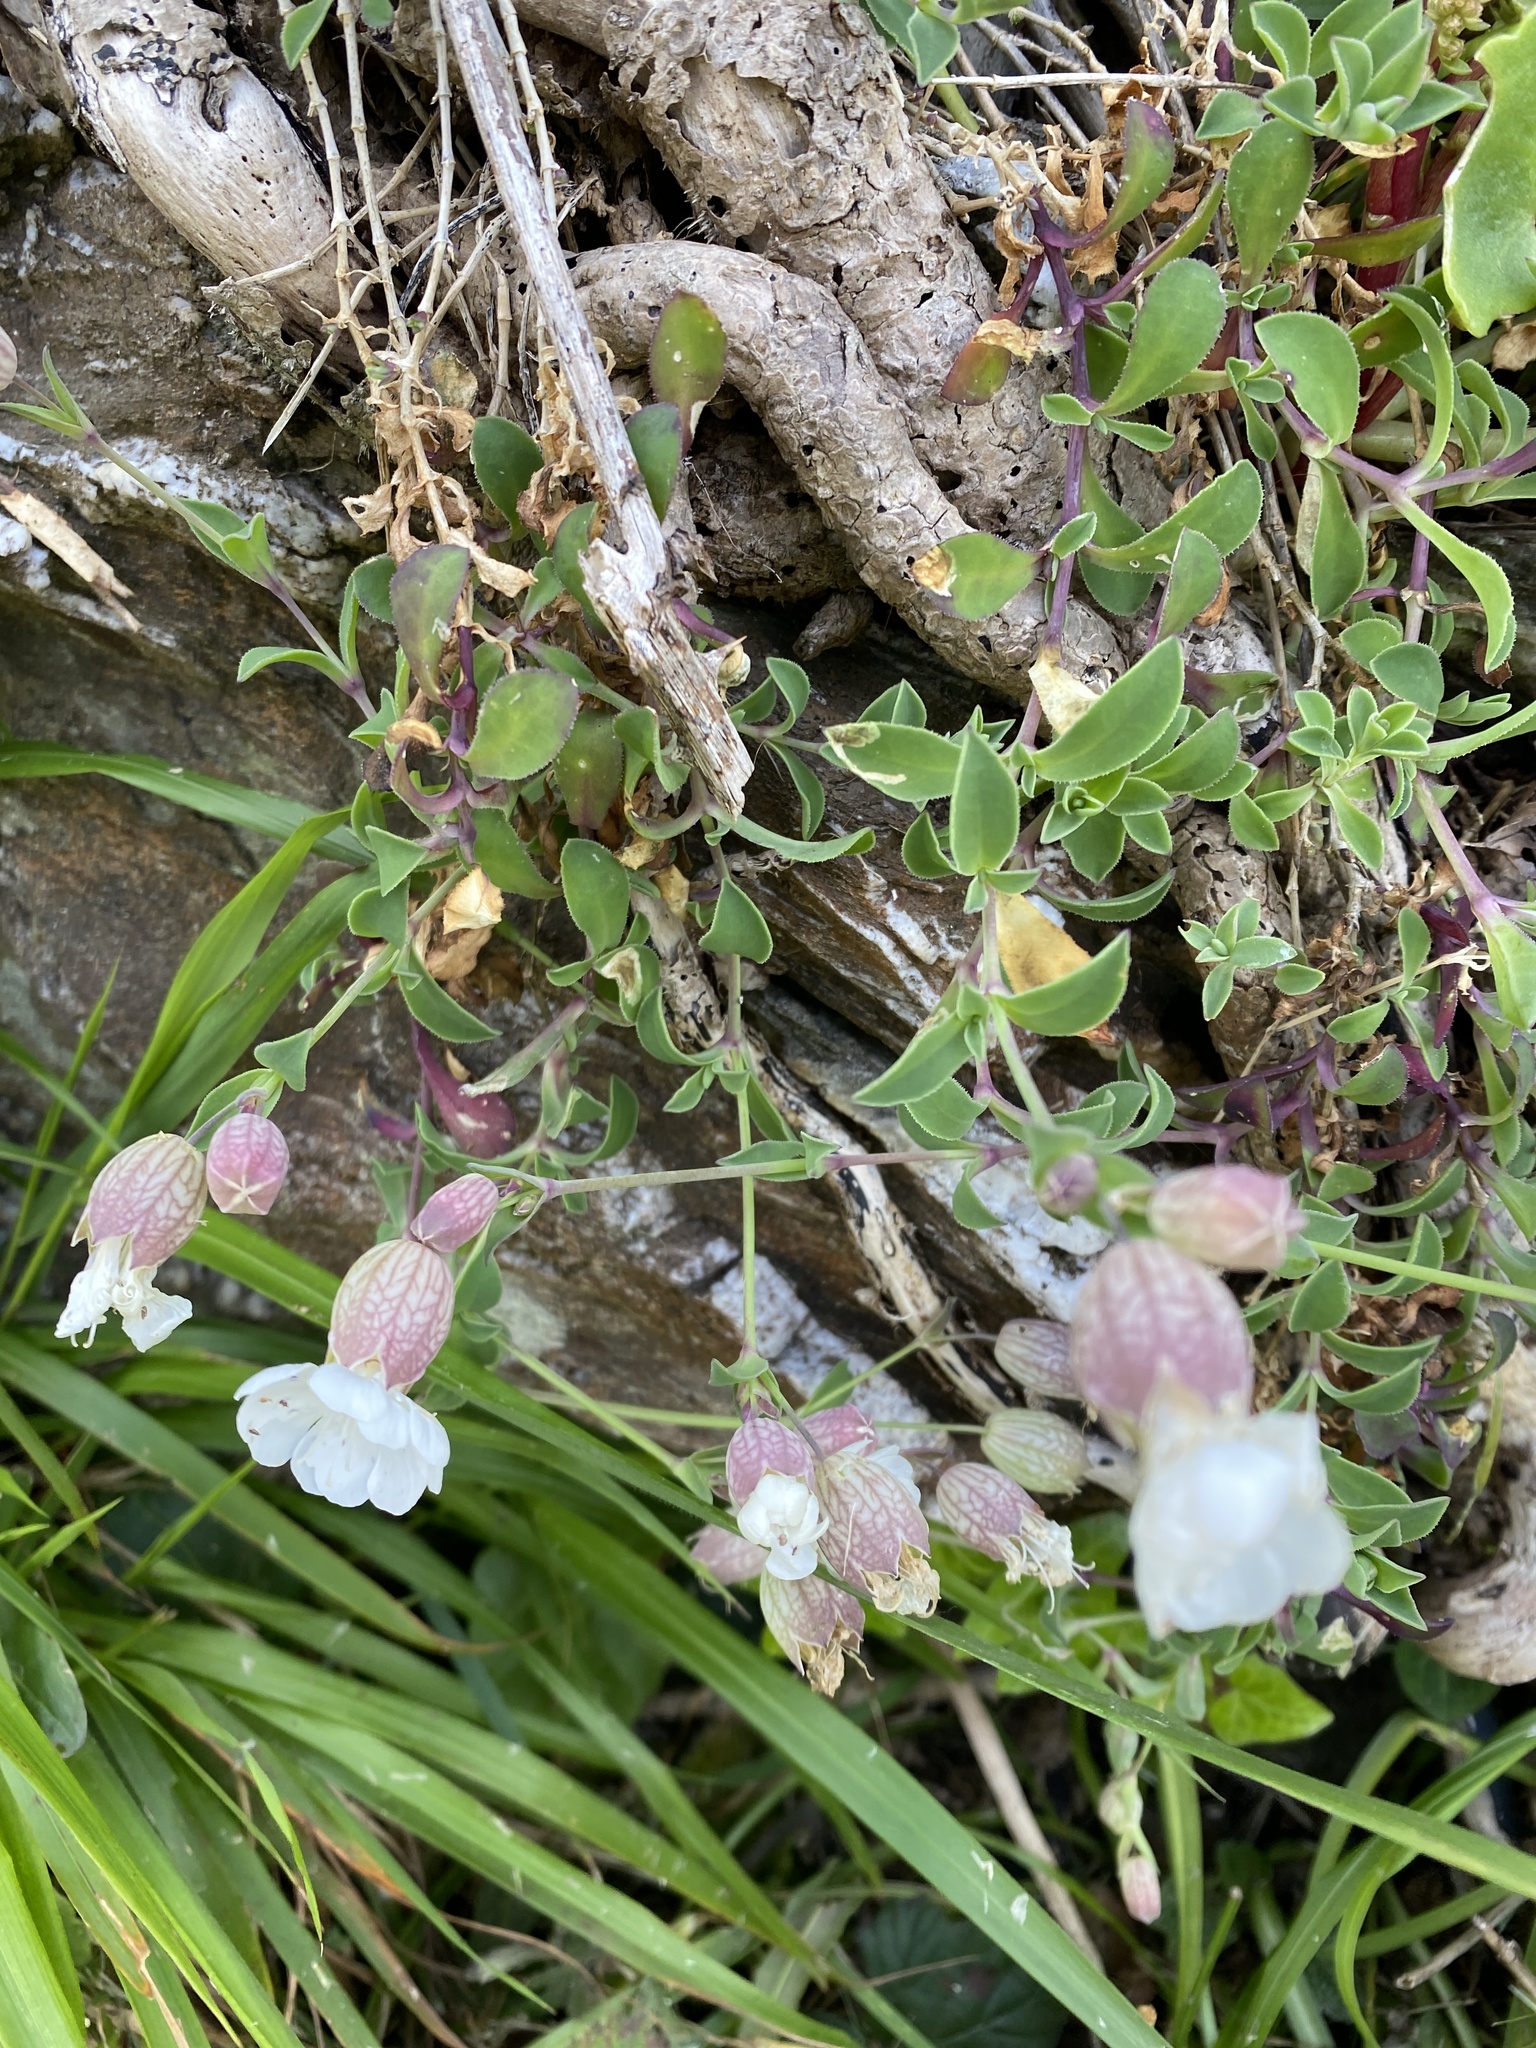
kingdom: Plantae
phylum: Tracheophyta
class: Magnoliopsida
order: Caryophyllales
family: Caryophyllaceae
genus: Silene
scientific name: Silene uniflora
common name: Sea campion
